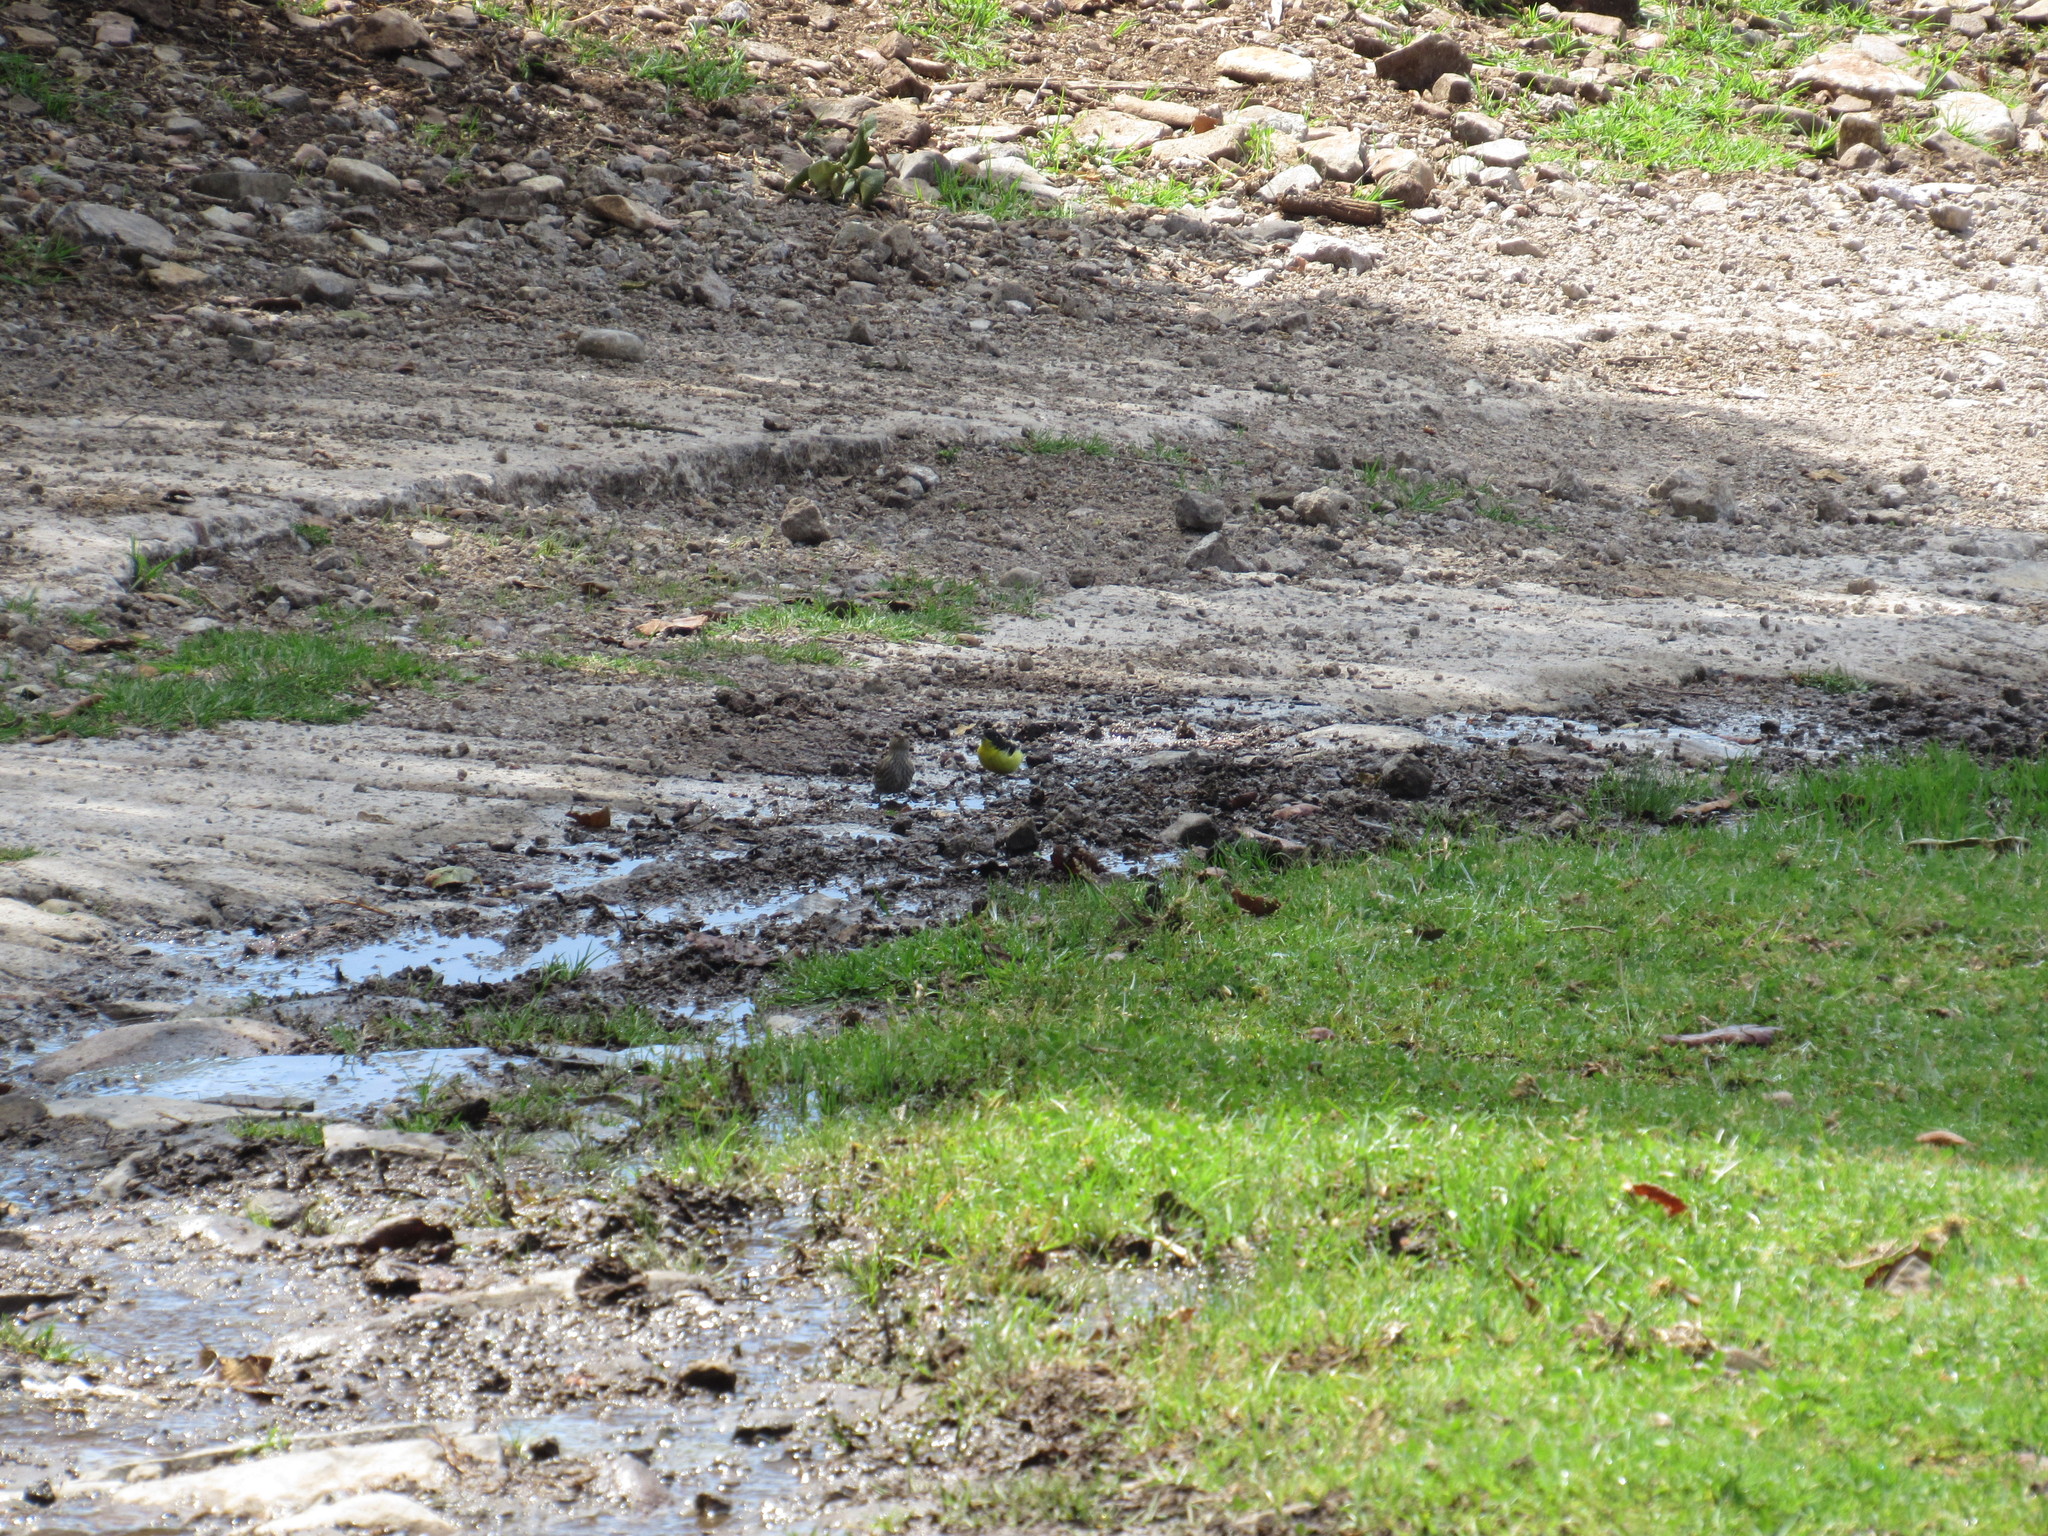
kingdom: Animalia
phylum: Chordata
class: Aves
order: Passeriformes
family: Fringillidae
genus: Spinus
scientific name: Spinus psaltria
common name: Lesser goldfinch
